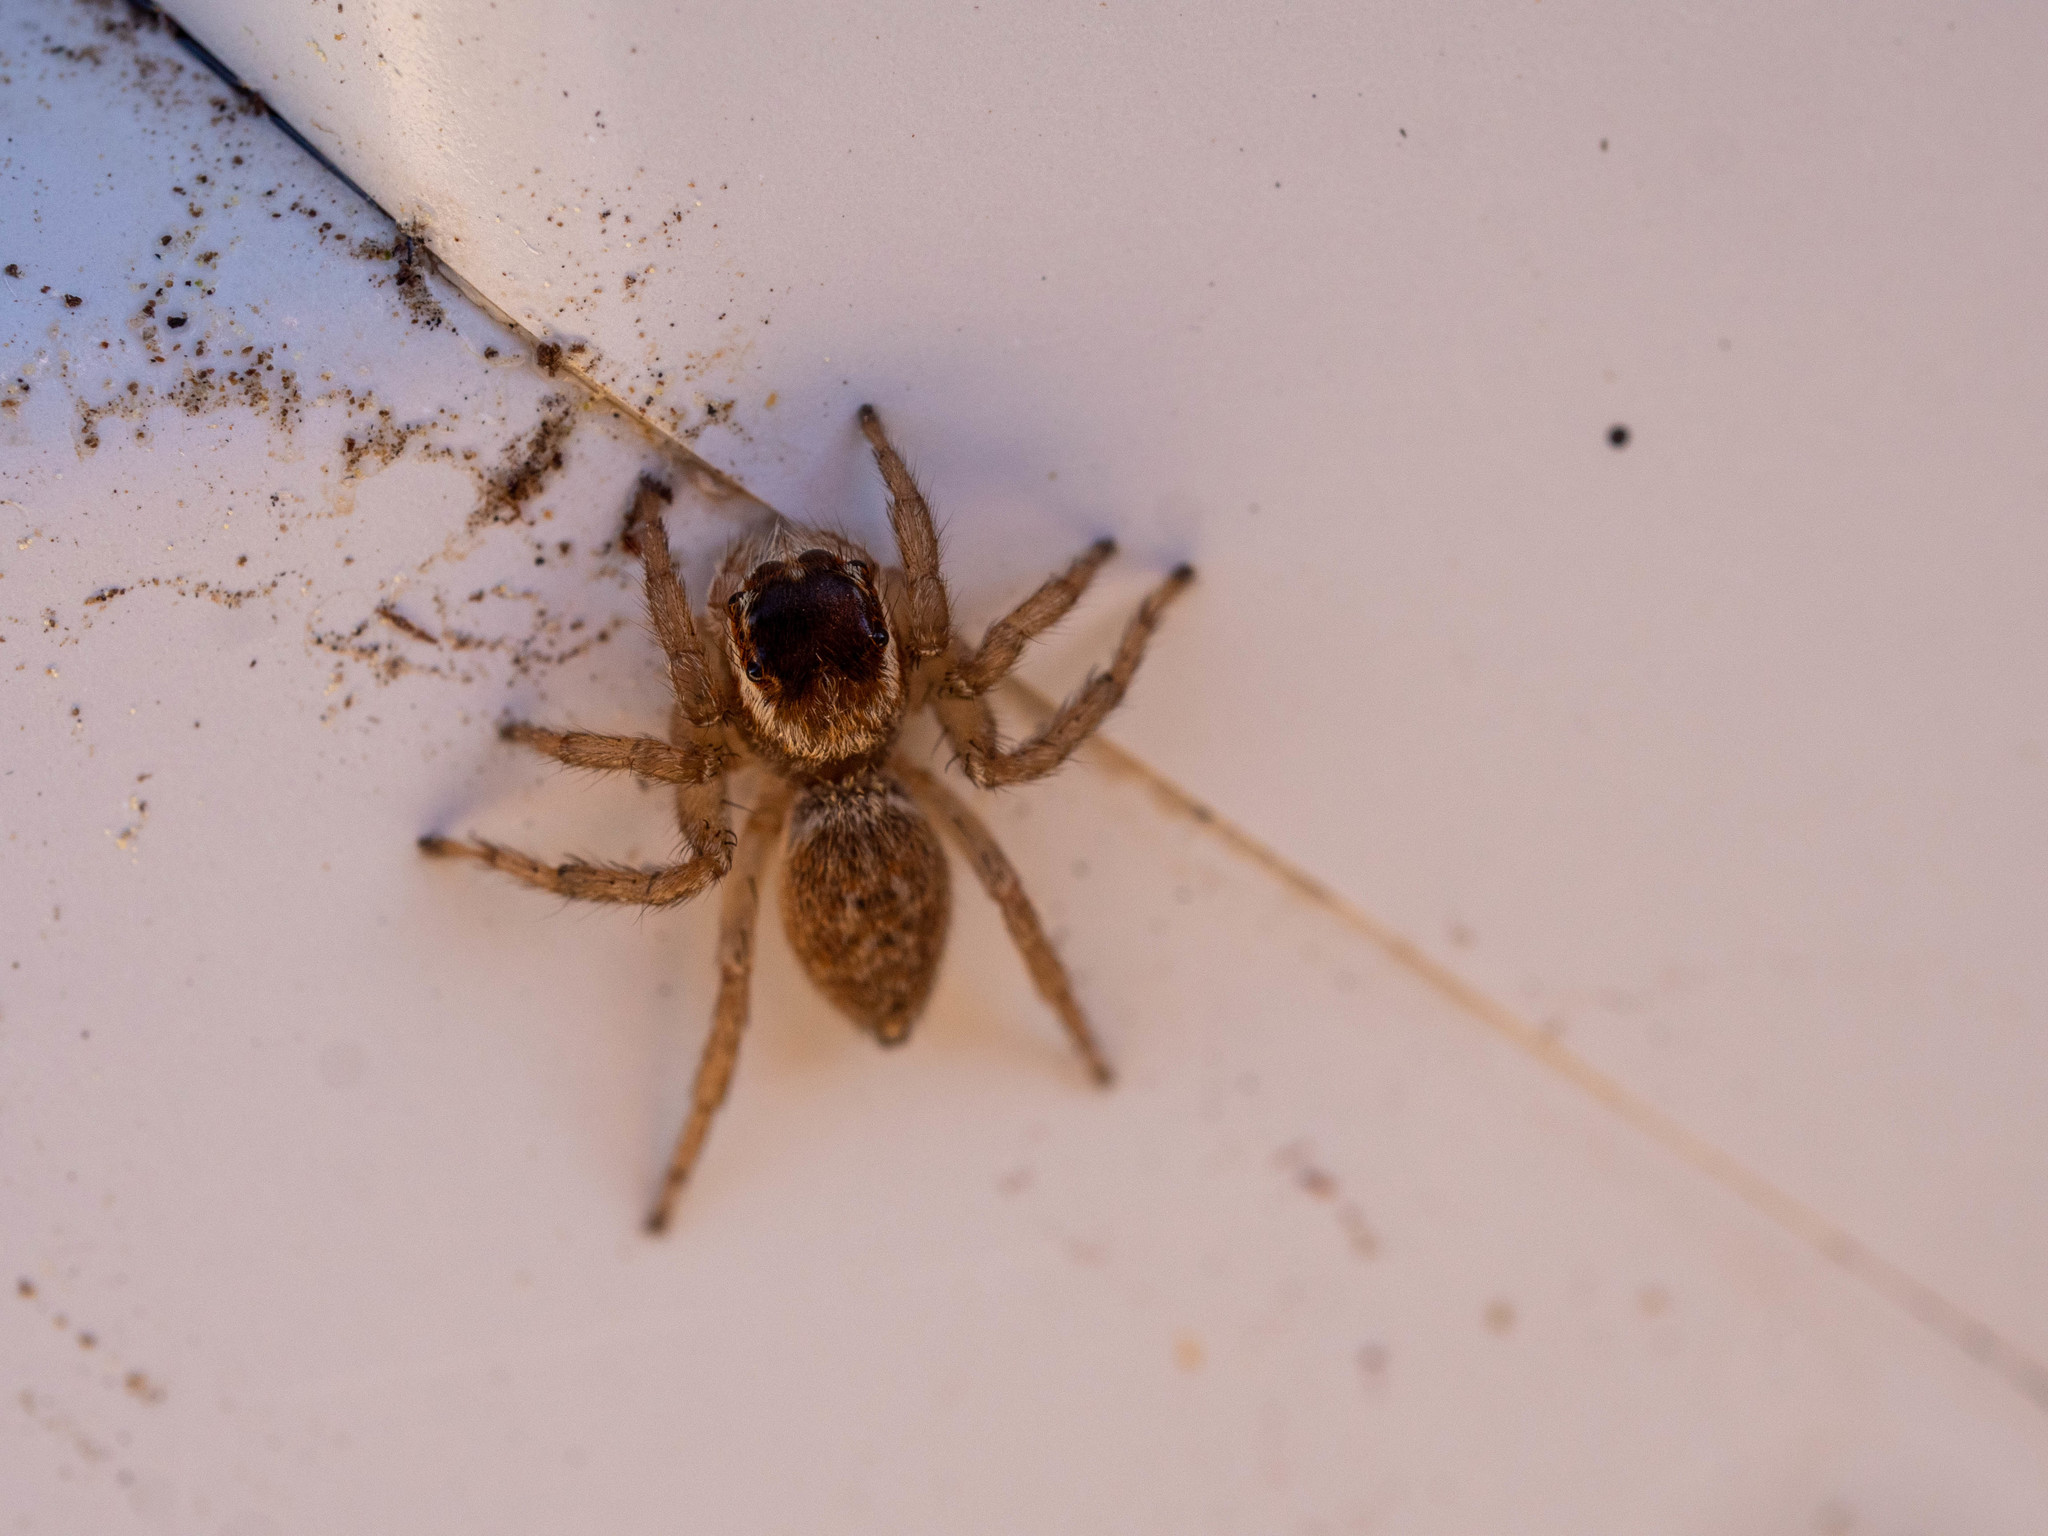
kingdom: Animalia
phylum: Arthropoda
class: Arachnida
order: Araneae
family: Salticidae
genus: Maratus
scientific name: Maratus griseus
